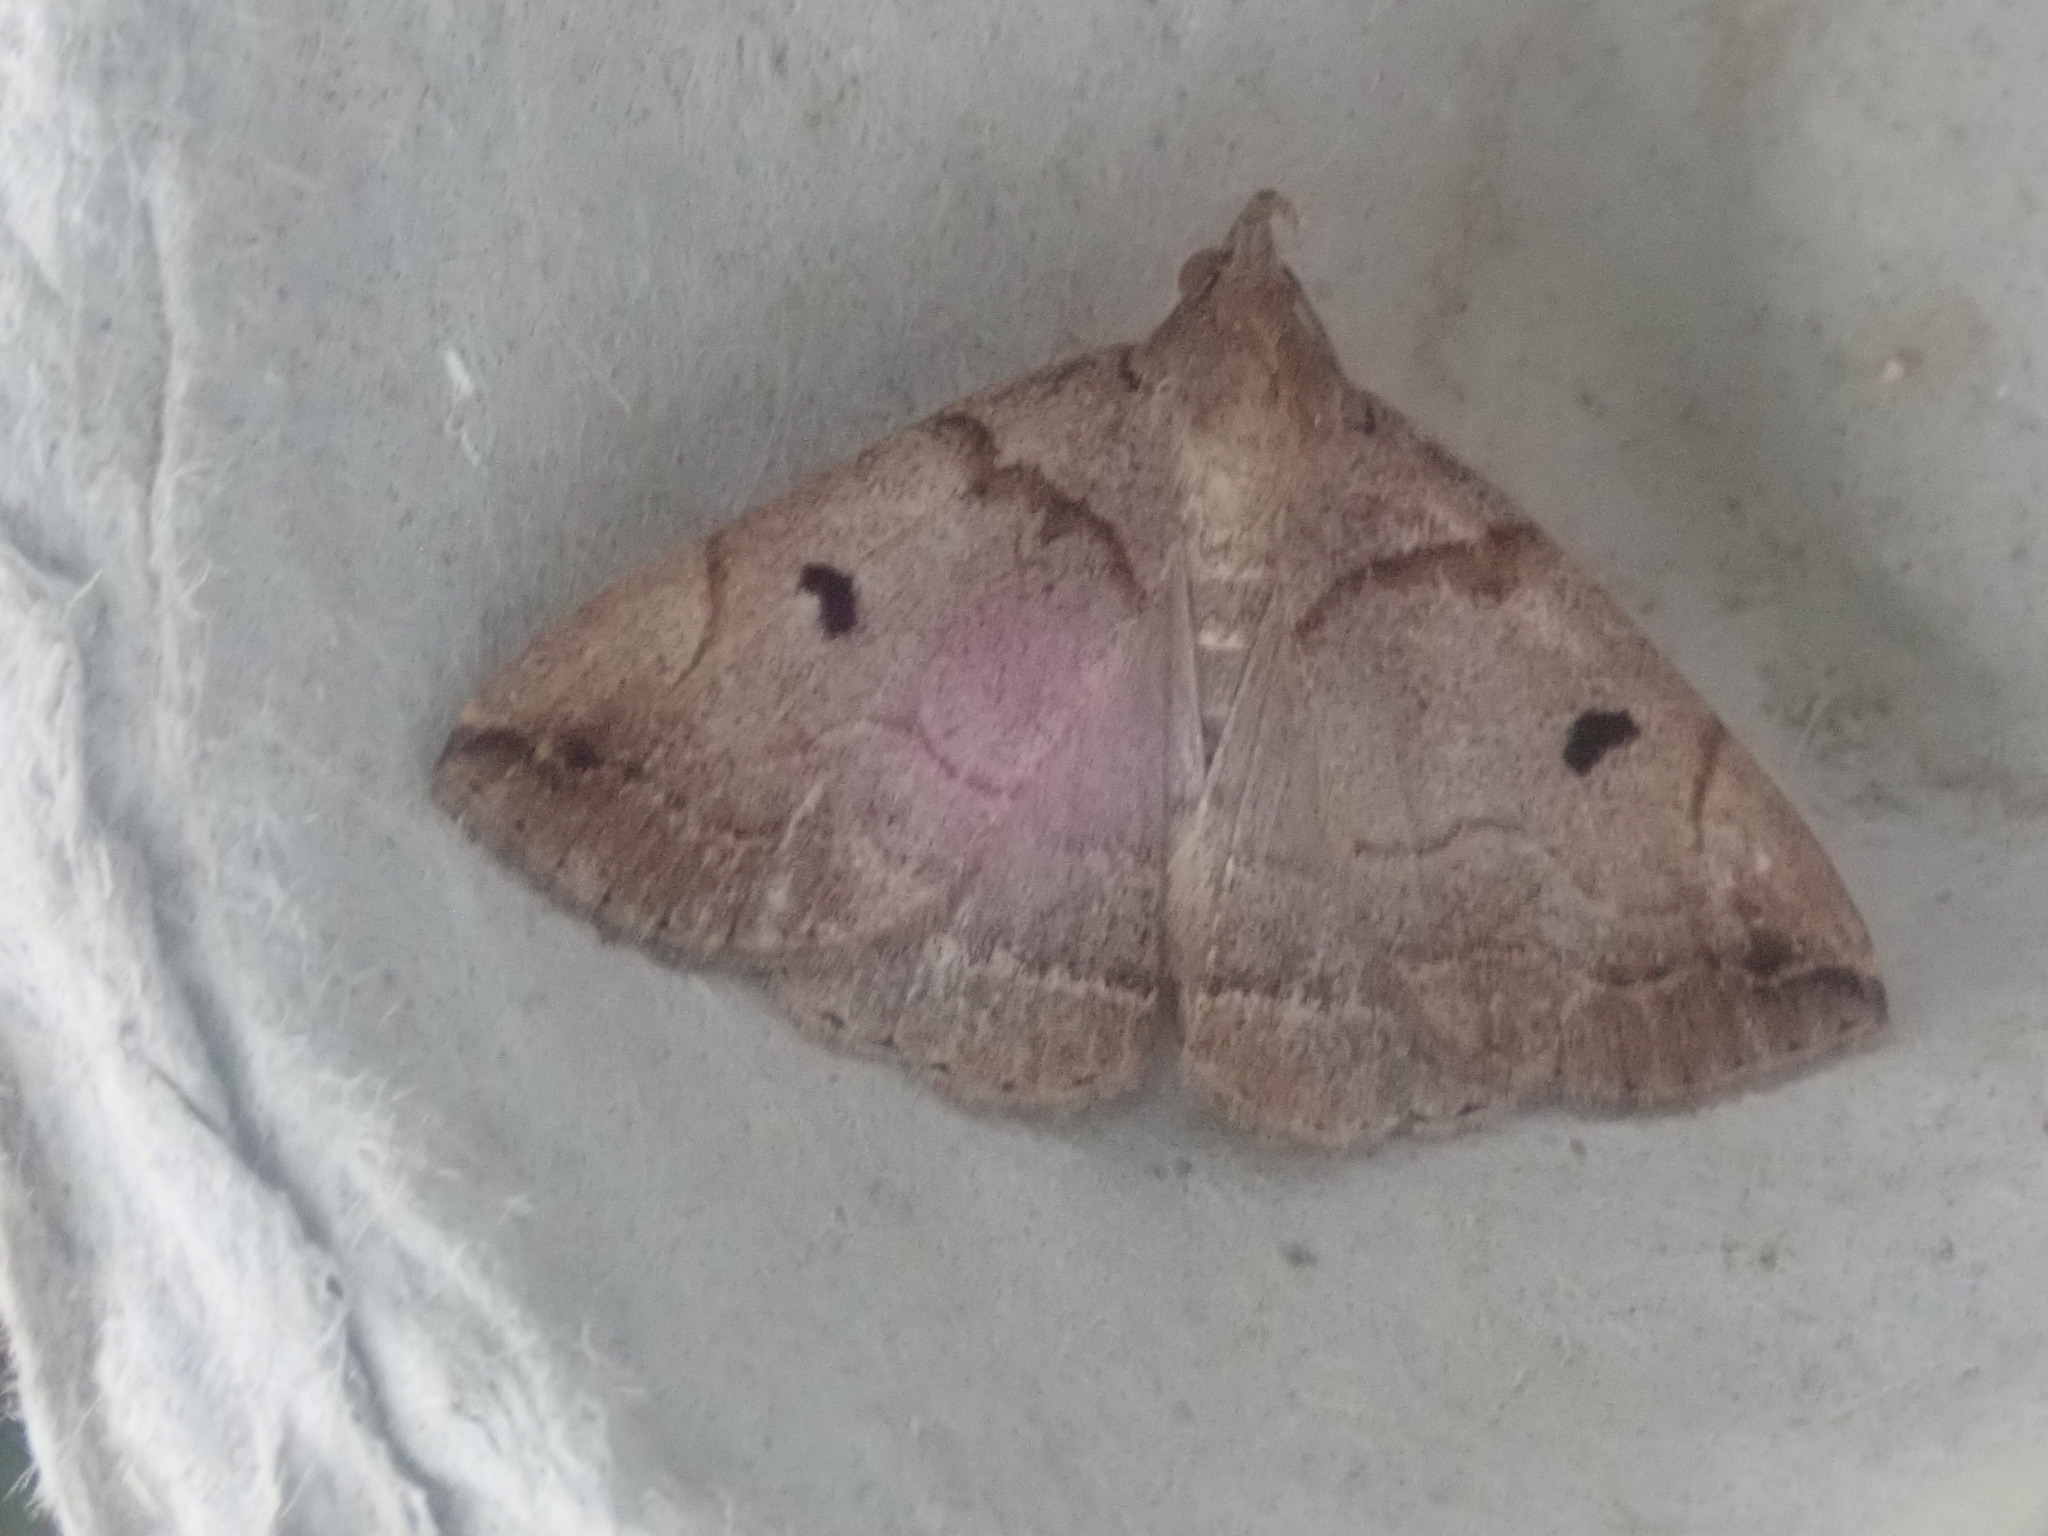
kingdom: Animalia
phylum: Arthropoda
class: Insecta
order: Lepidoptera
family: Erebidae
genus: Zanclognatha
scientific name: Zanclognatha laevigata
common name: Variable fan-foot
